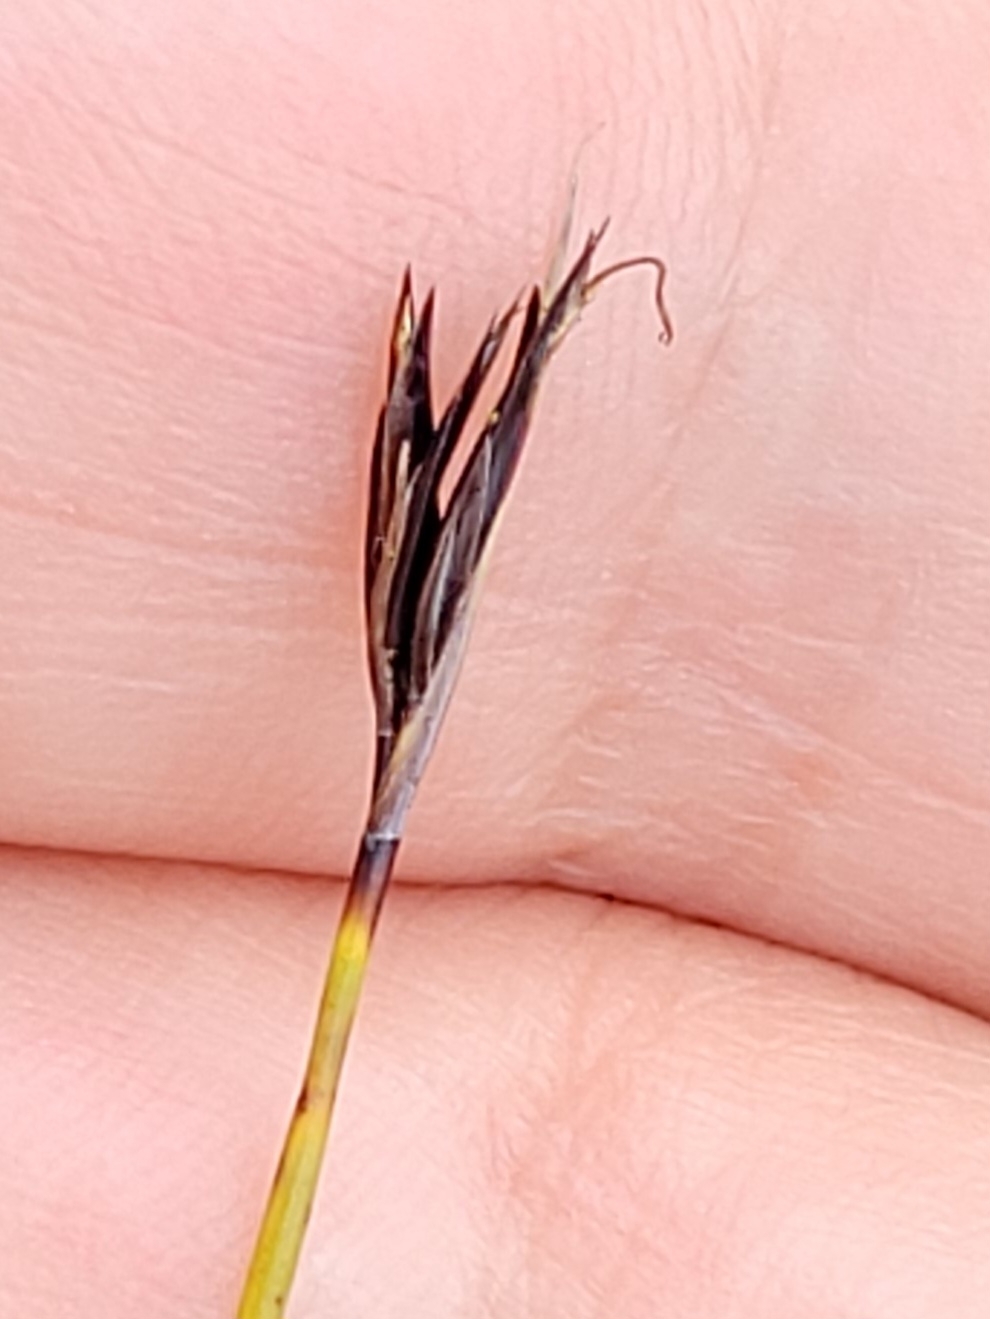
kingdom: Plantae
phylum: Tracheophyta
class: Liliopsida
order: Poales
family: Cyperaceae
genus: Schoenus
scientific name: Schoenus ferrugineus
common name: Brown bog-rush
